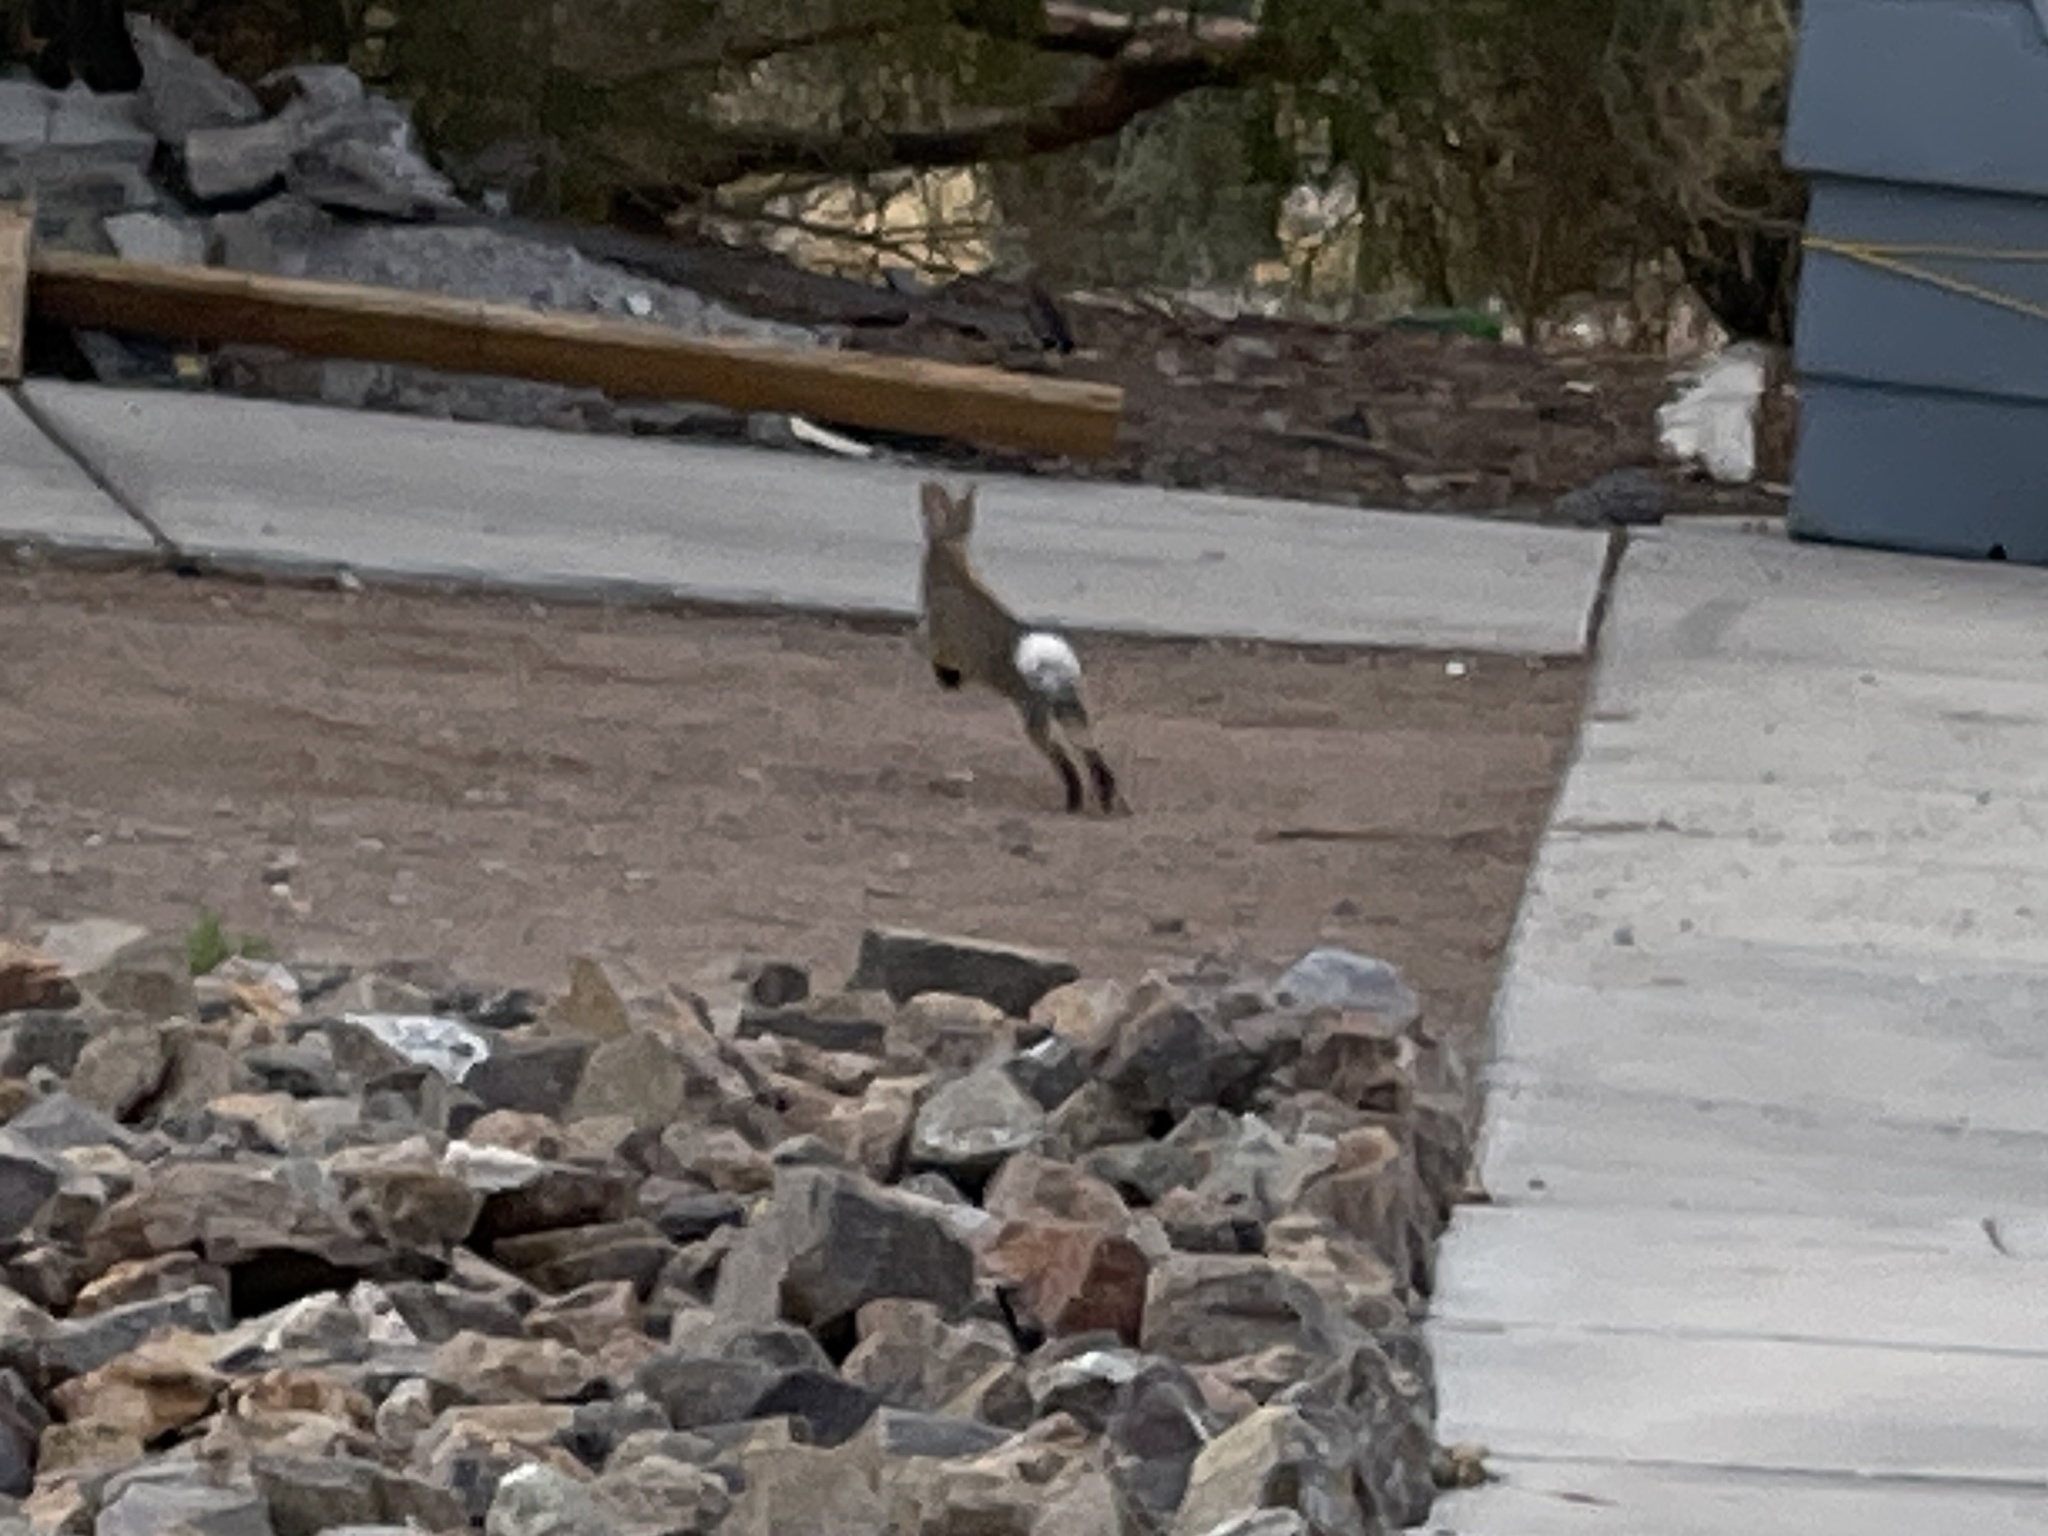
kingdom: Animalia
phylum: Chordata
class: Mammalia
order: Lagomorpha
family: Leporidae
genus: Sylvilagus
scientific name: Sylvilagus audubonii
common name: Desert cottontail
